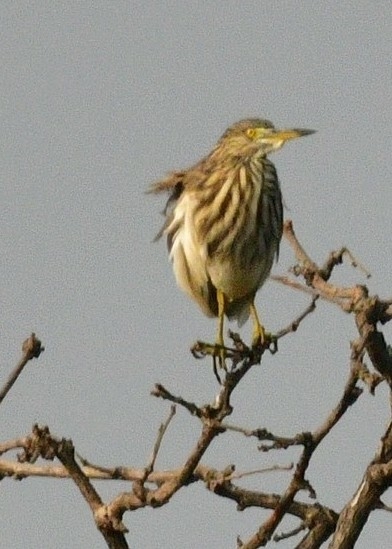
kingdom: Animalia
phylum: Chordata
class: Aves
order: Pelecaniformes
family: Ardeidae
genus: Ardeola
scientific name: Ardeola grayii
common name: Indian pond heron
